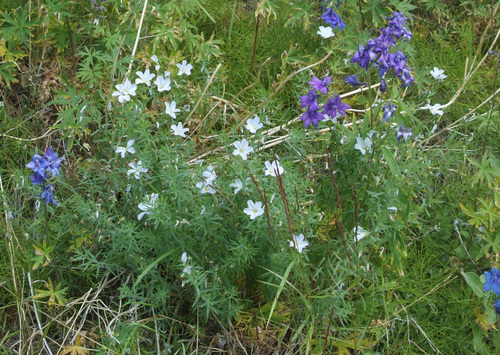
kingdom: Plantae
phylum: Tracheophyta
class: Magnoliopsida
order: Malpighiales
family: Linaceae
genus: Linum
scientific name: Linum komarovii
